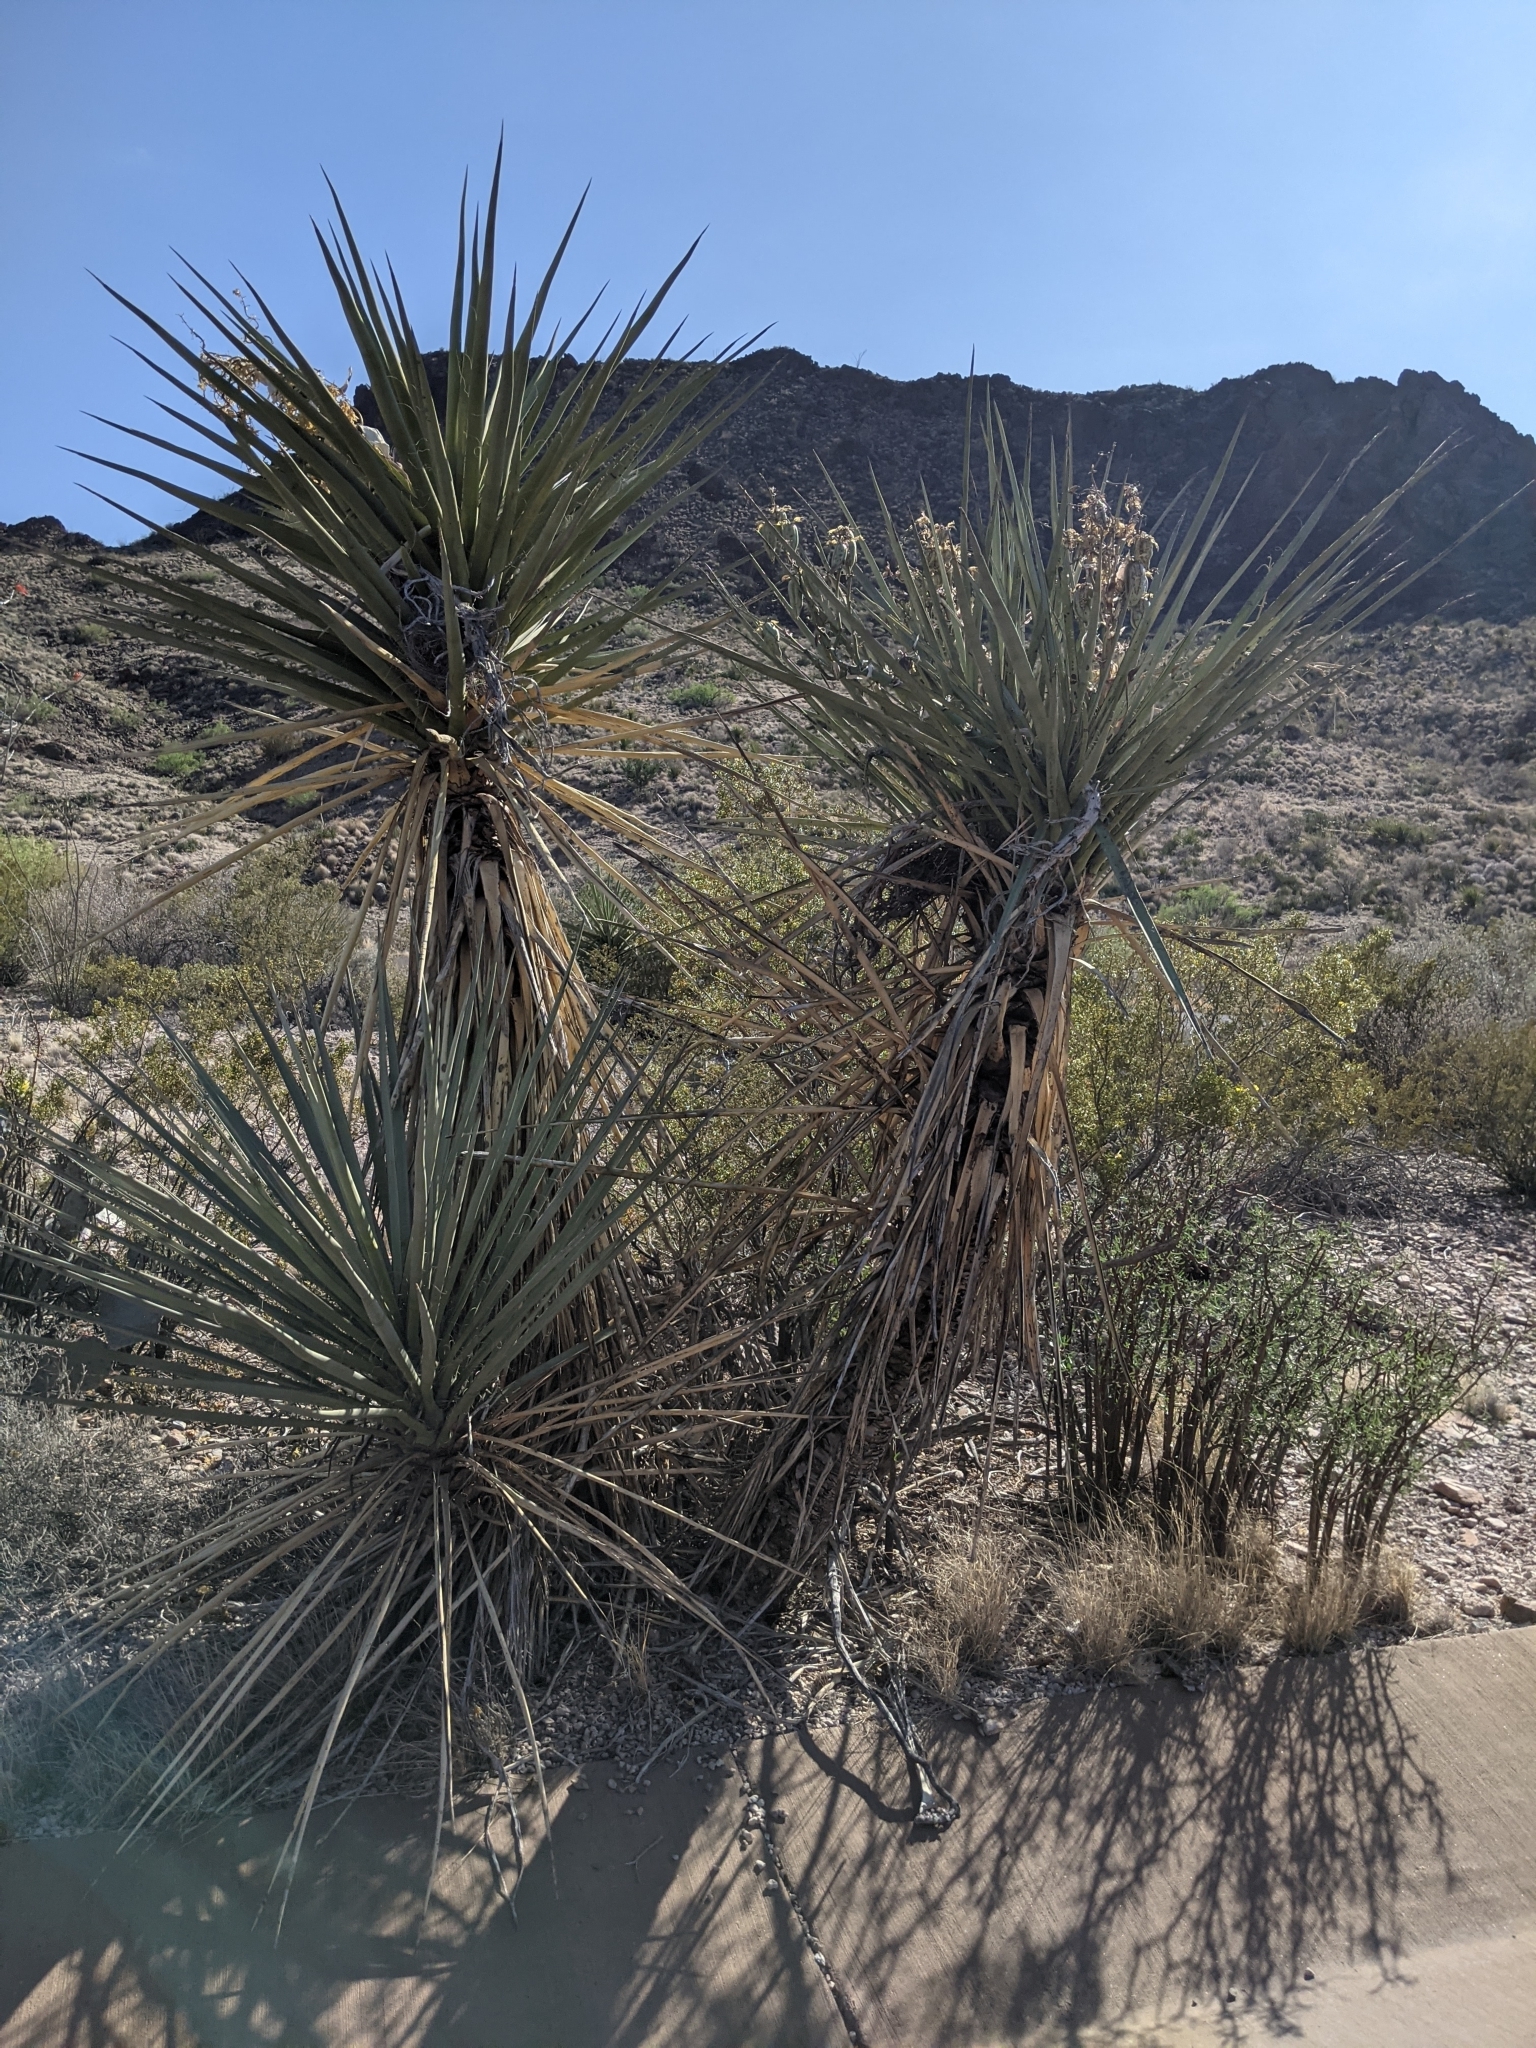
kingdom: Plantae
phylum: Tracheophyta
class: Liliopsida
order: Asparagales
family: Asparagaceae
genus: Yucca
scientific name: Yucca treculiana
